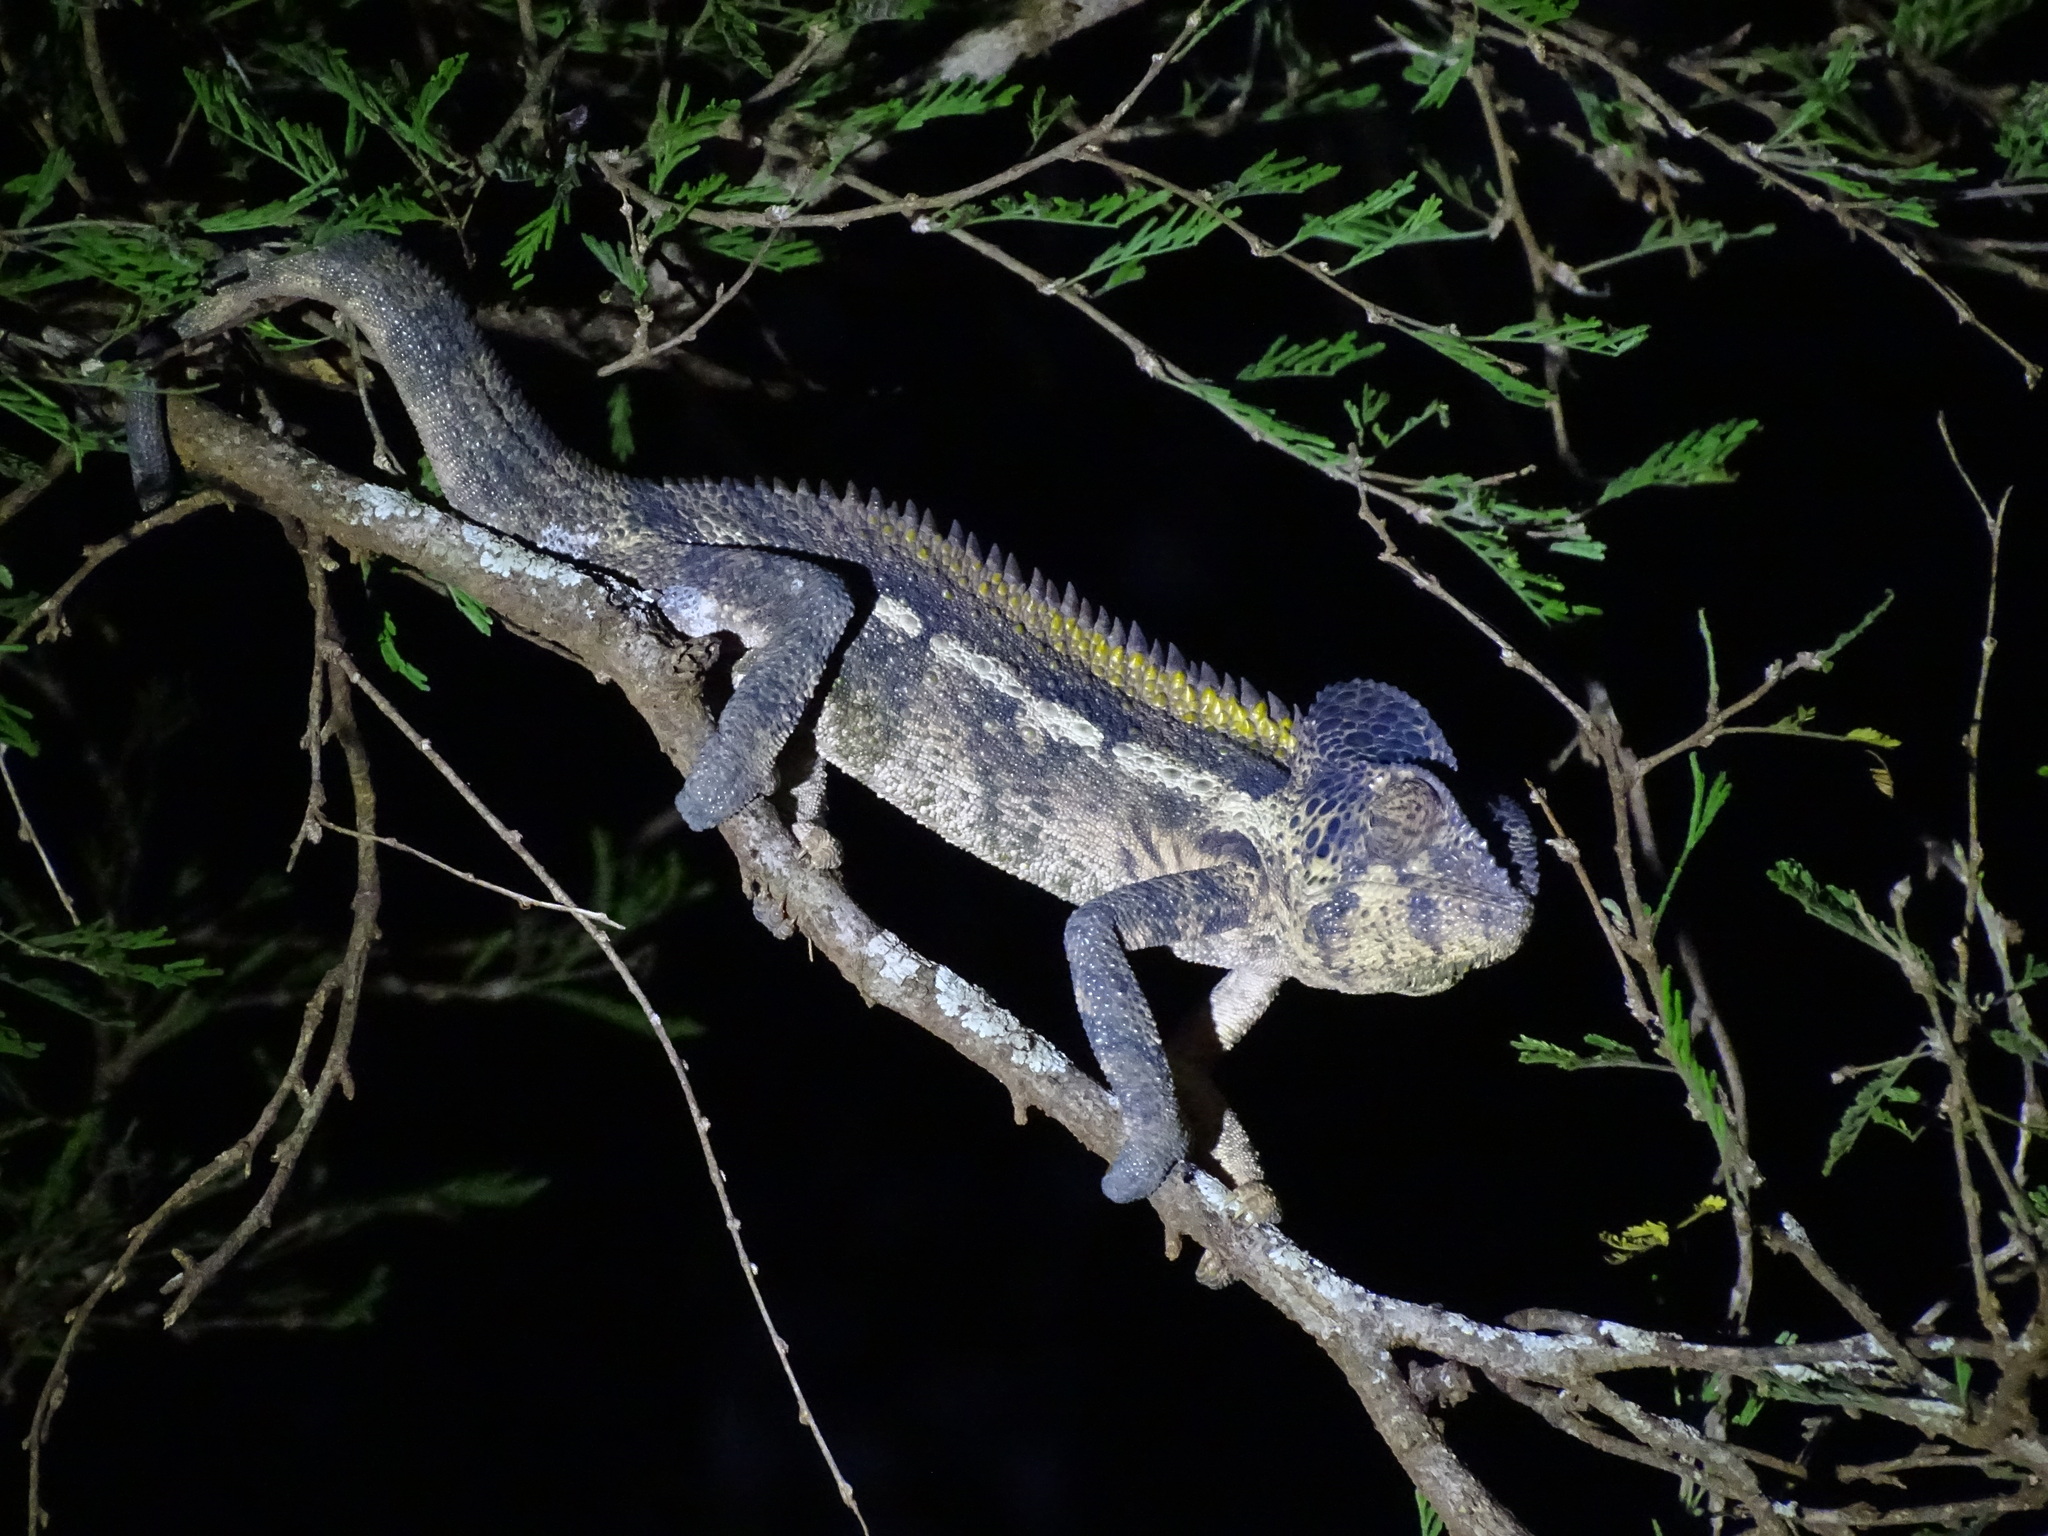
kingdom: Animalia
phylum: Chordata
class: Squamata
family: Chamaeleonidae
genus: Furcifer
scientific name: Furcifer verrucosus
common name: Warty chameleon
